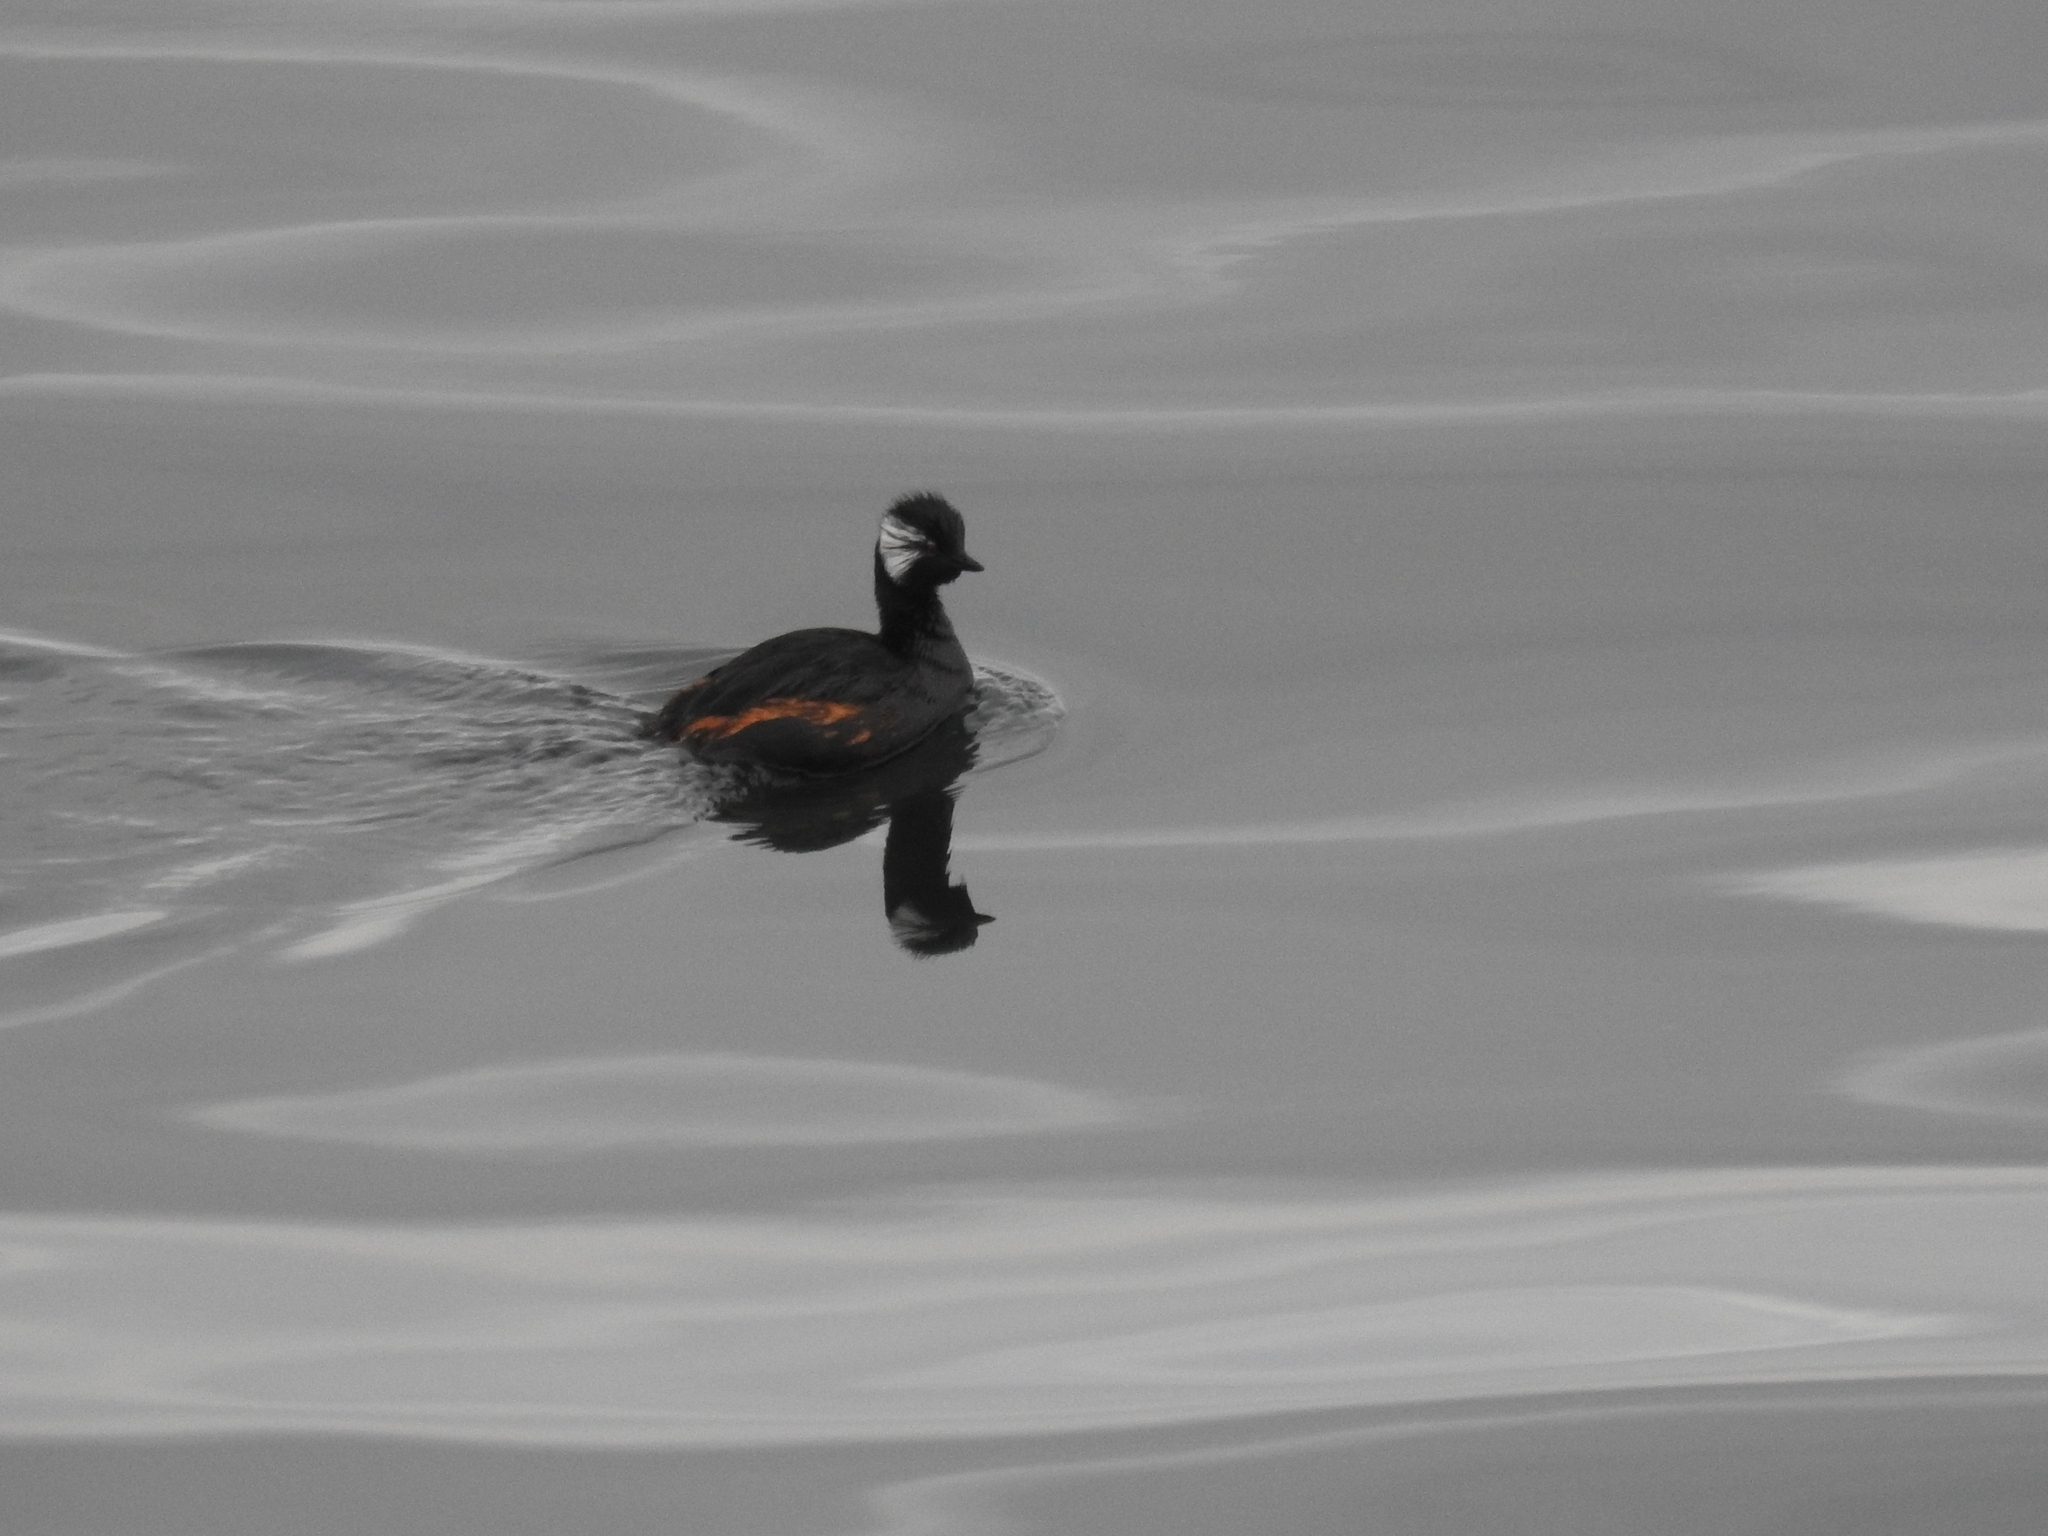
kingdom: Animalia
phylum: Chordata
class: Aves
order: Podicipediformes
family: Podicipedidae
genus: Rollandia
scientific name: Rollandia rolland
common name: White-tufted grebe
